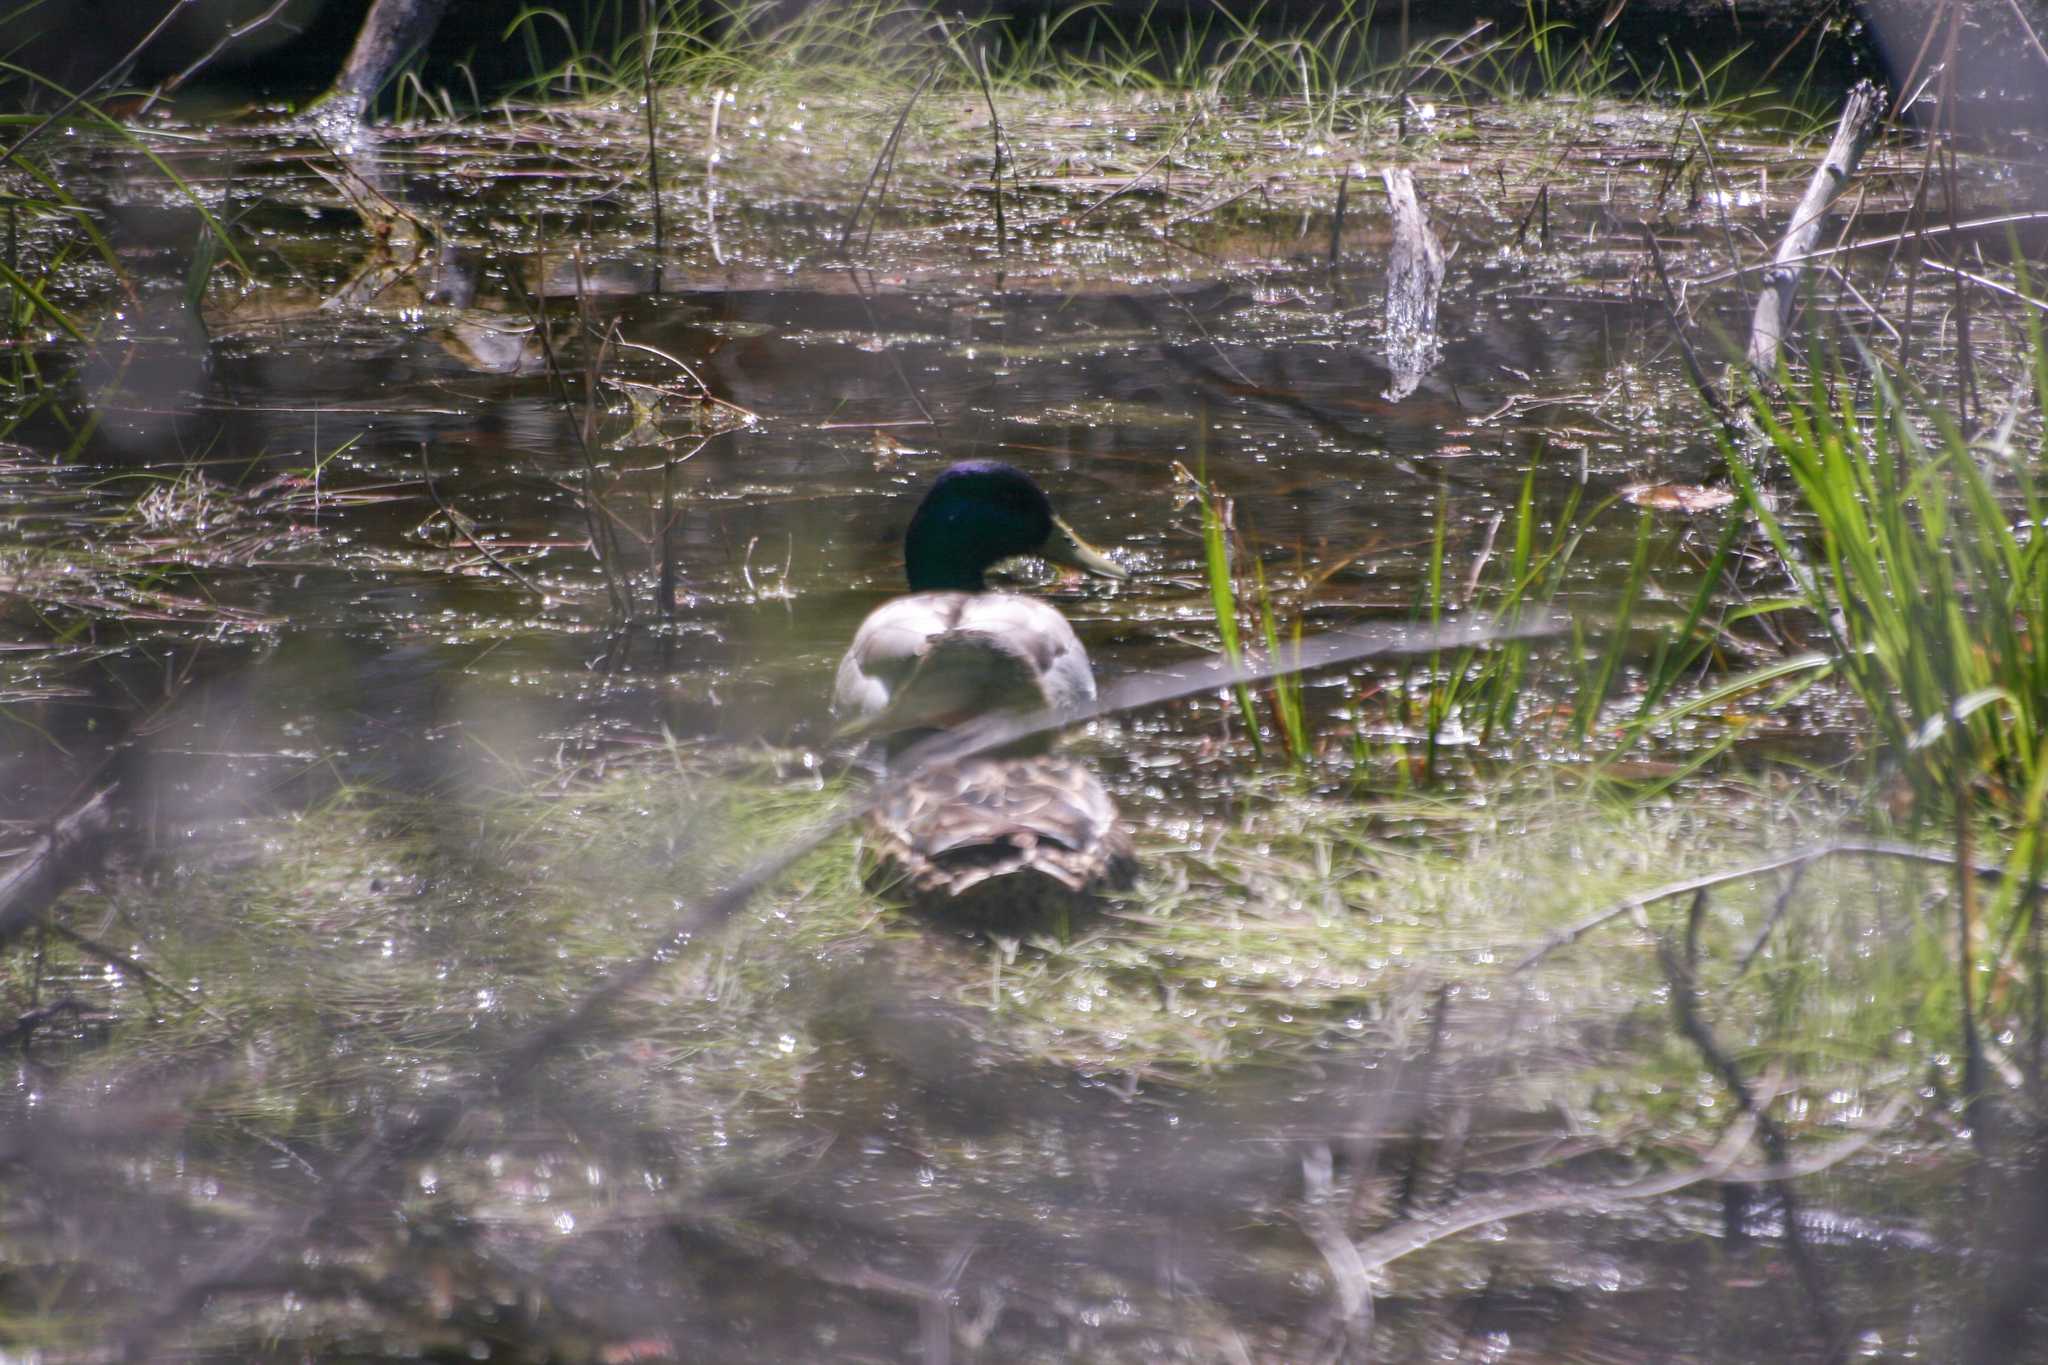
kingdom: Animalia
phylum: Chordata
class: Aves
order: Anseriformes
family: Anatidae
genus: Anas
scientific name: Anas platyrhynchos
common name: Mallard
